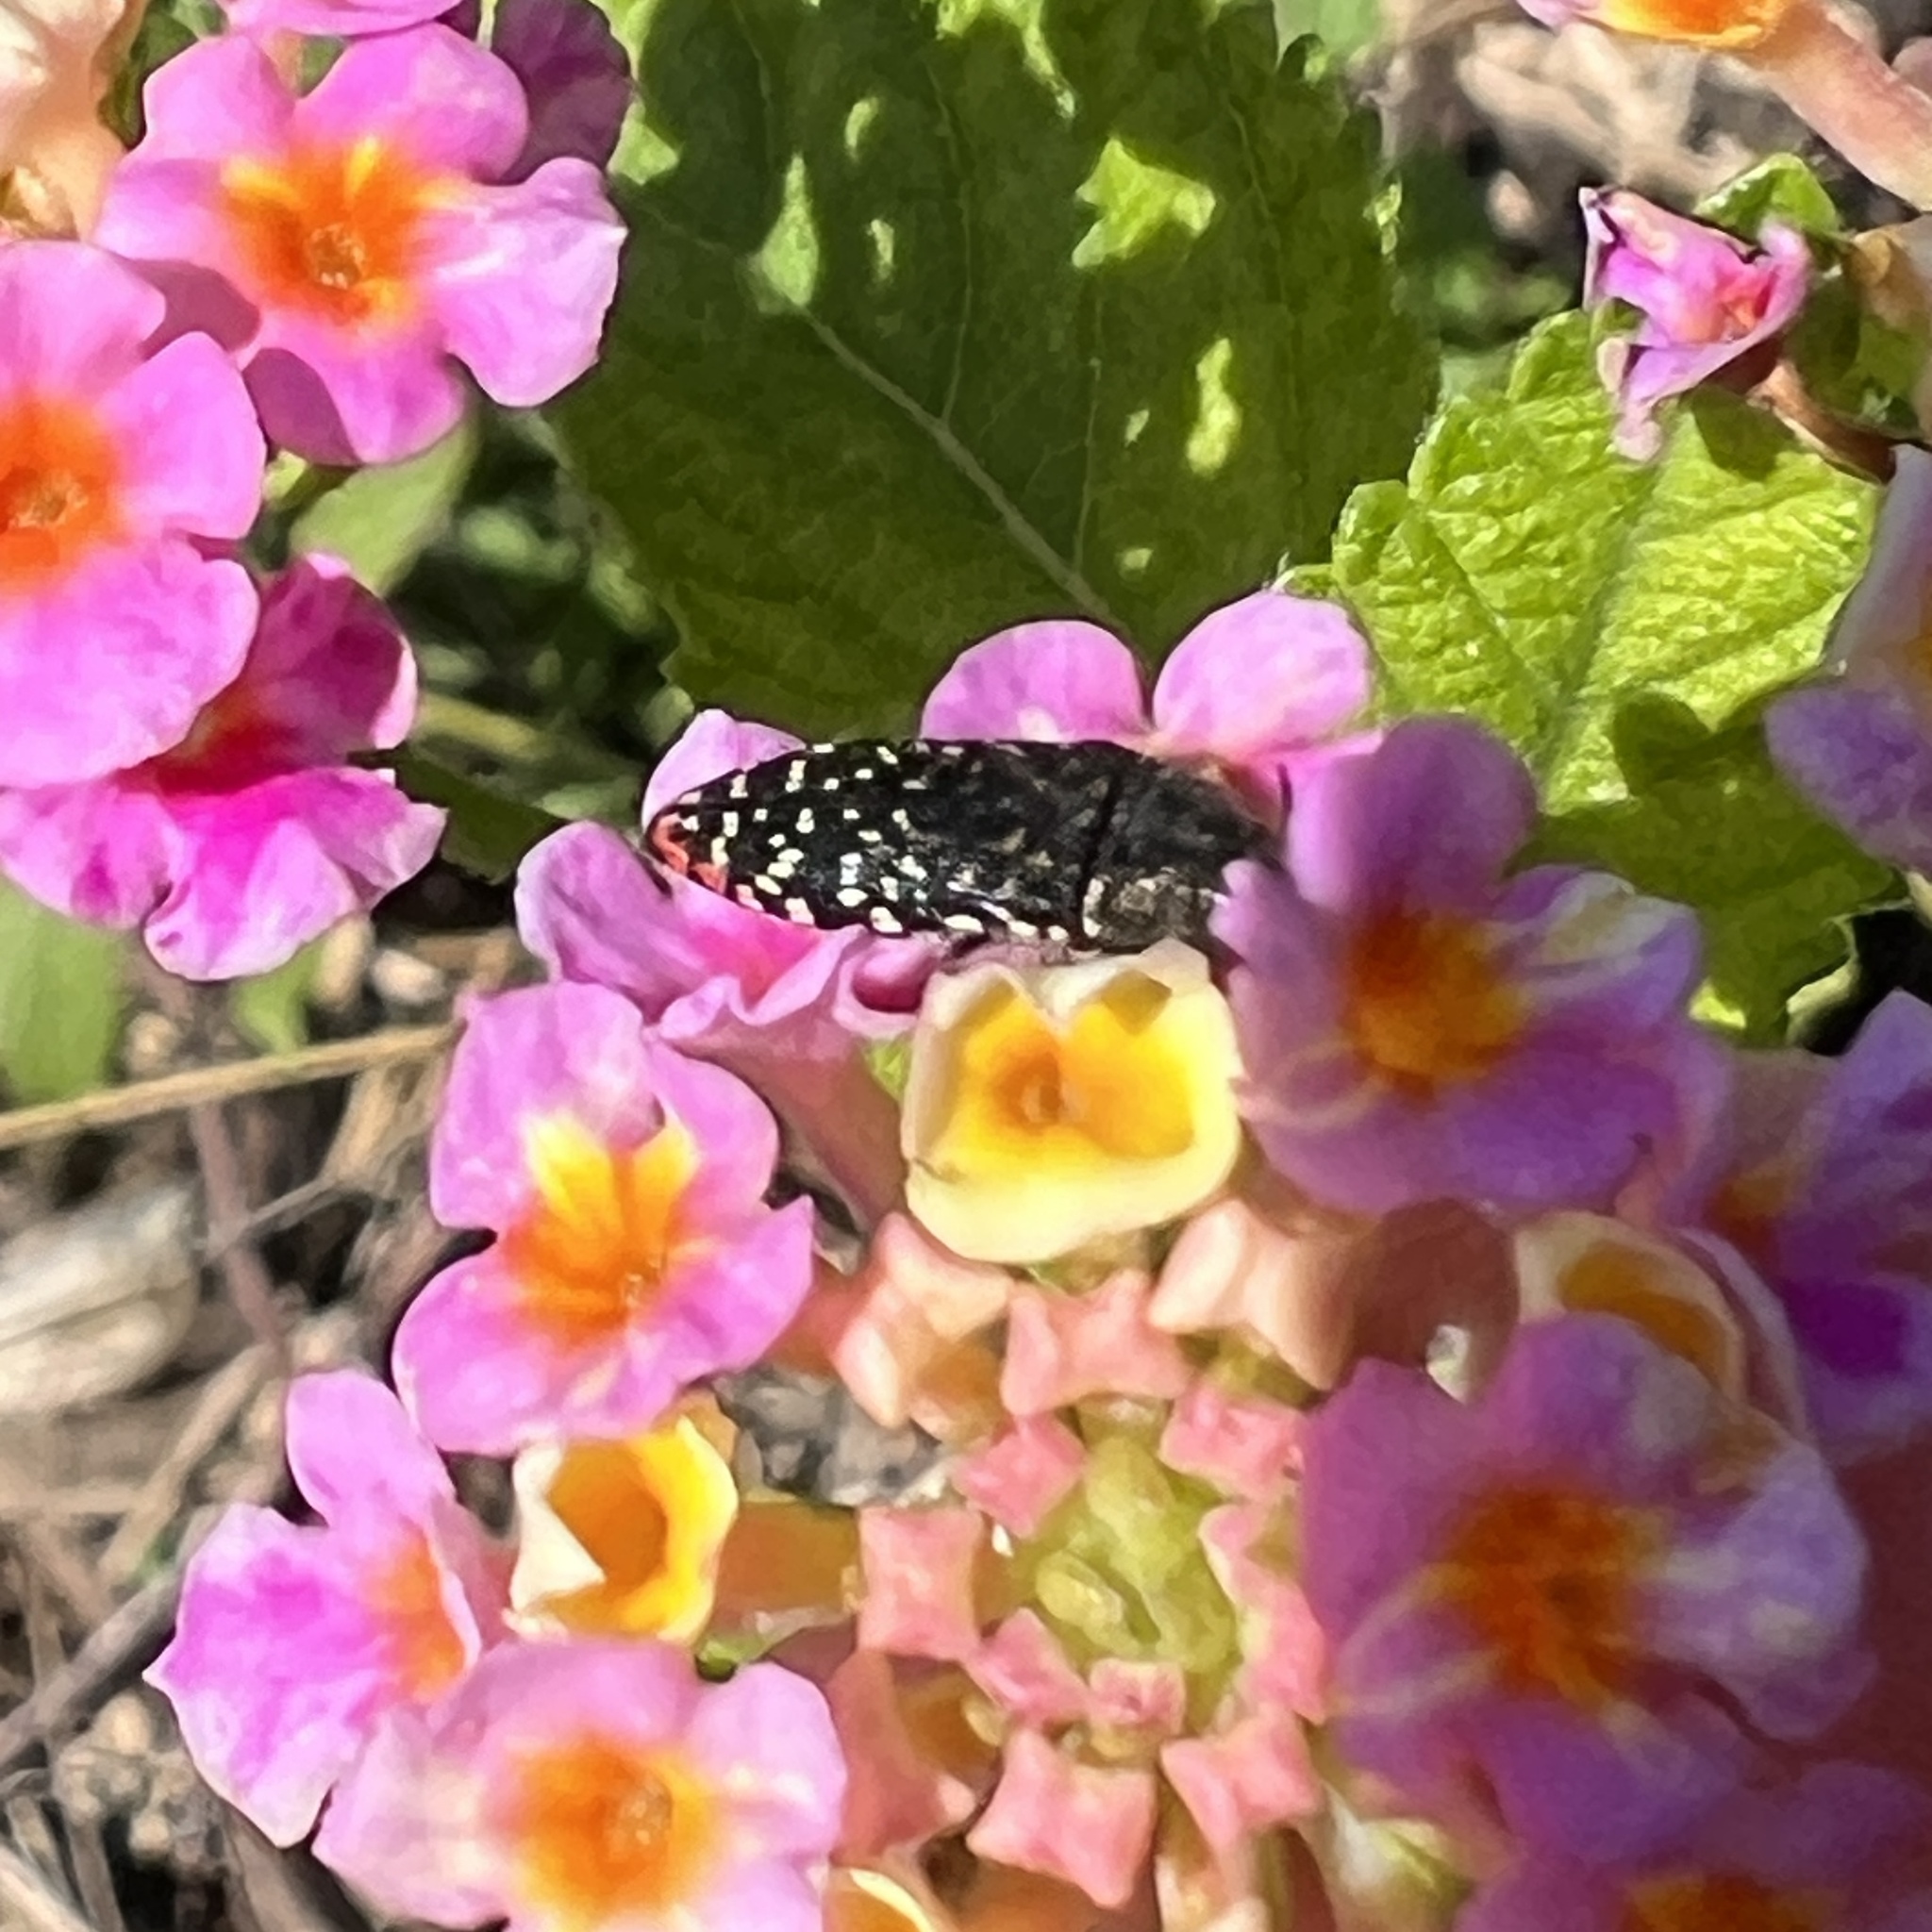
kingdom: Animalia
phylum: Arthropoda
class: Insecta
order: Coleoptera
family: Buprestidae
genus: Acmaeodera
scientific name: Acmaeodera haemorrhoa
